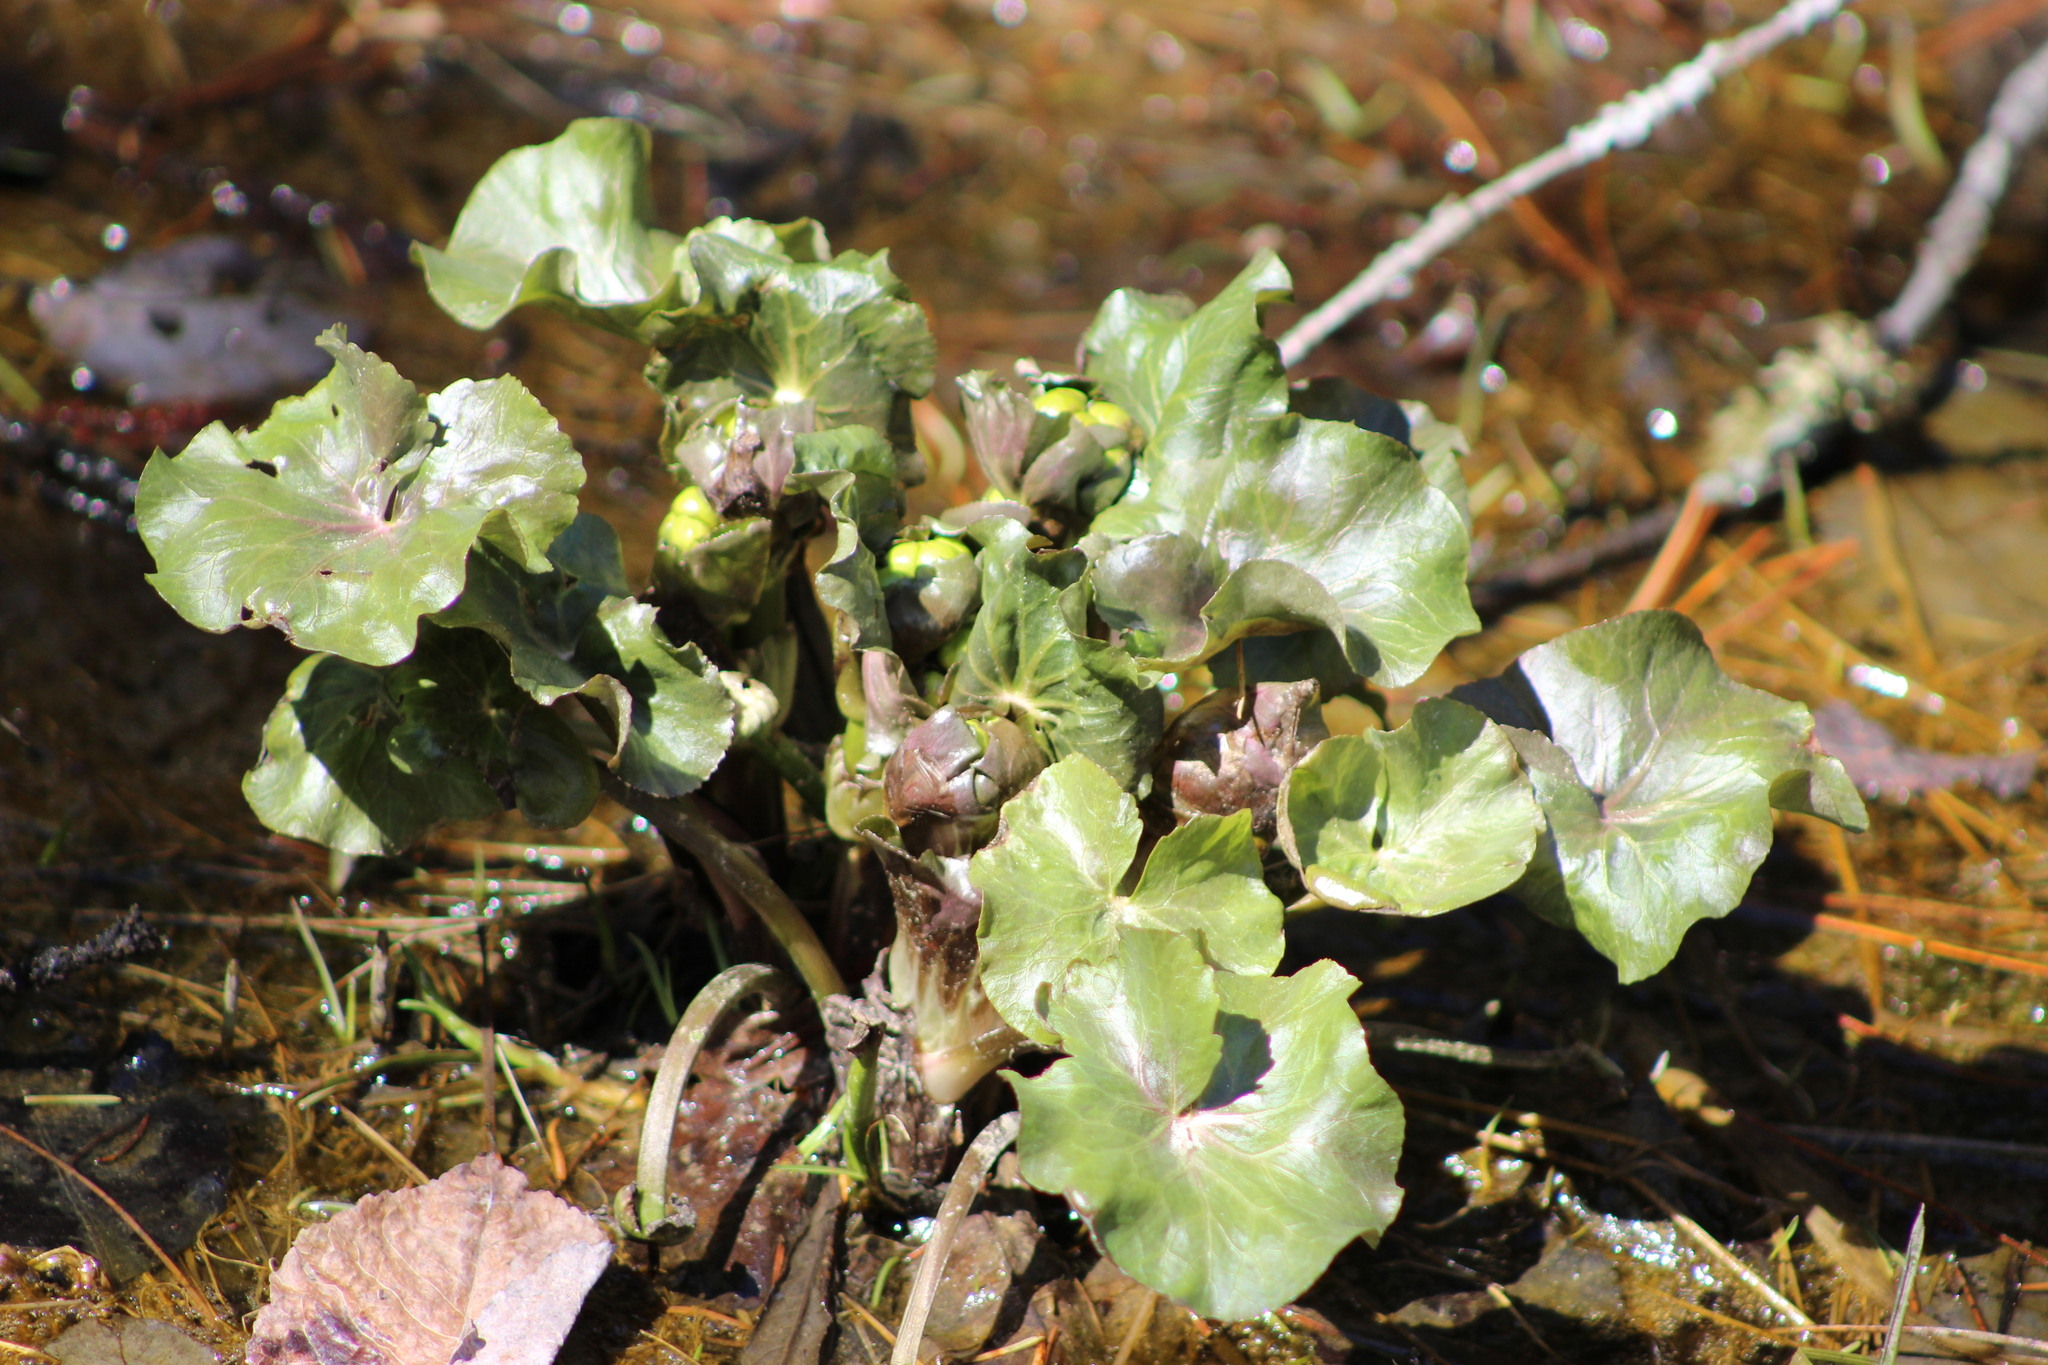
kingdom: Plantae
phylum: Tracheophyta
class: Magnoliopsida
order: Ranunculales
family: Ranunculaceae
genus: Caltha
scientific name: Caltha palustris
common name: Marsh marigold
